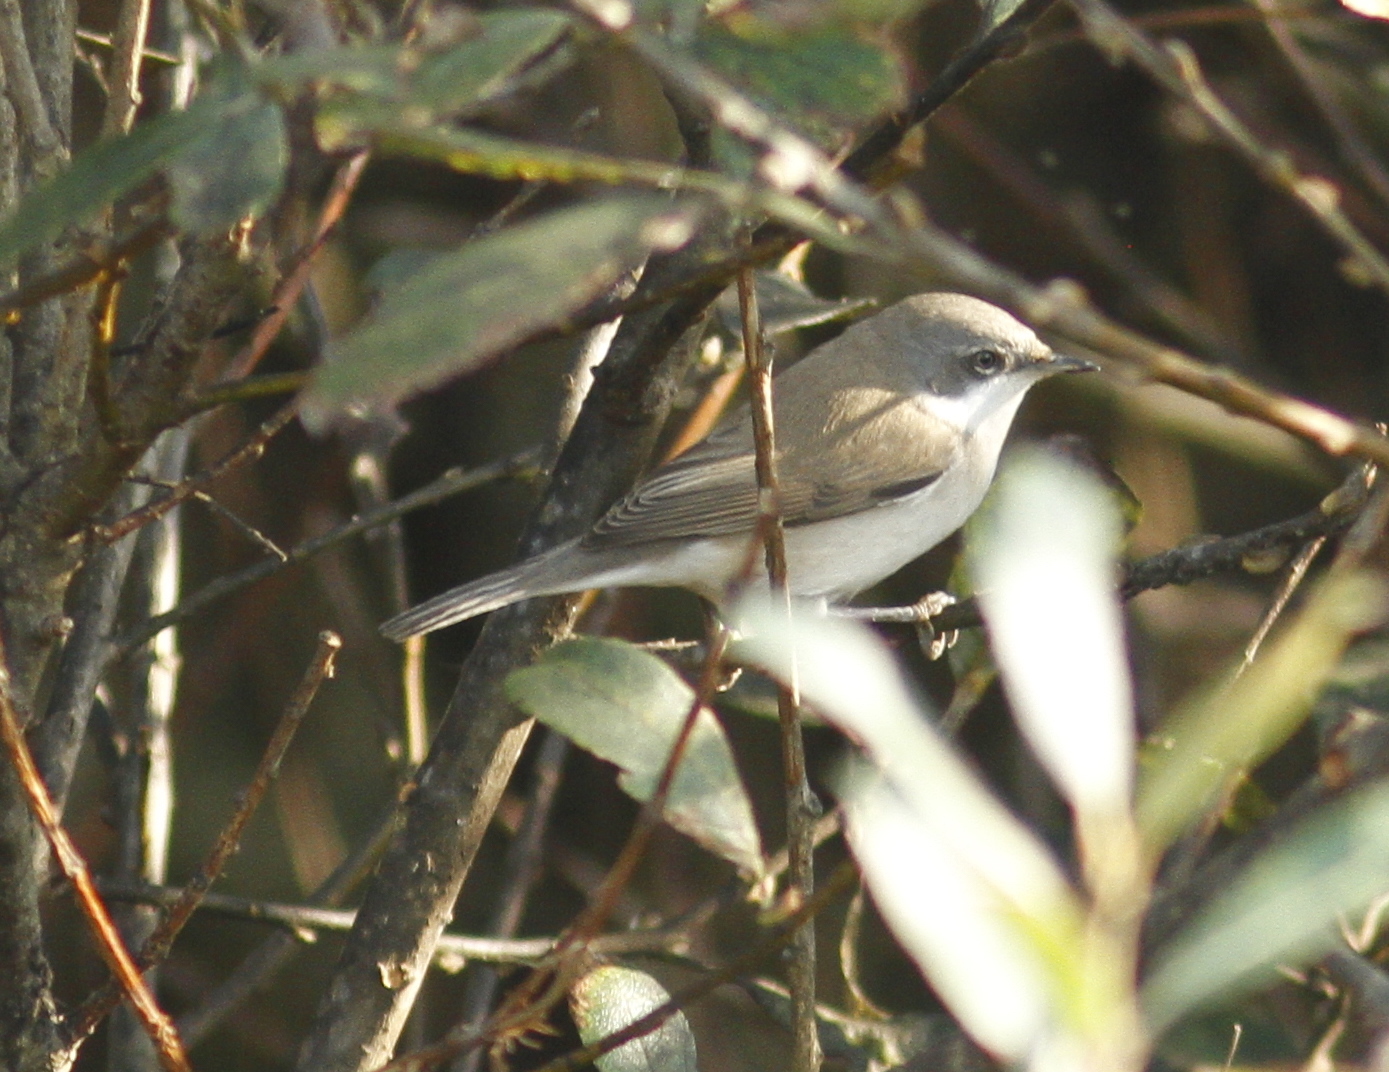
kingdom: Animalia
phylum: Chordata
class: Aves
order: Passeriformes
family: Sylviidae
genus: Sylvia
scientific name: Sylvia curruca
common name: Lesser whitethroat
